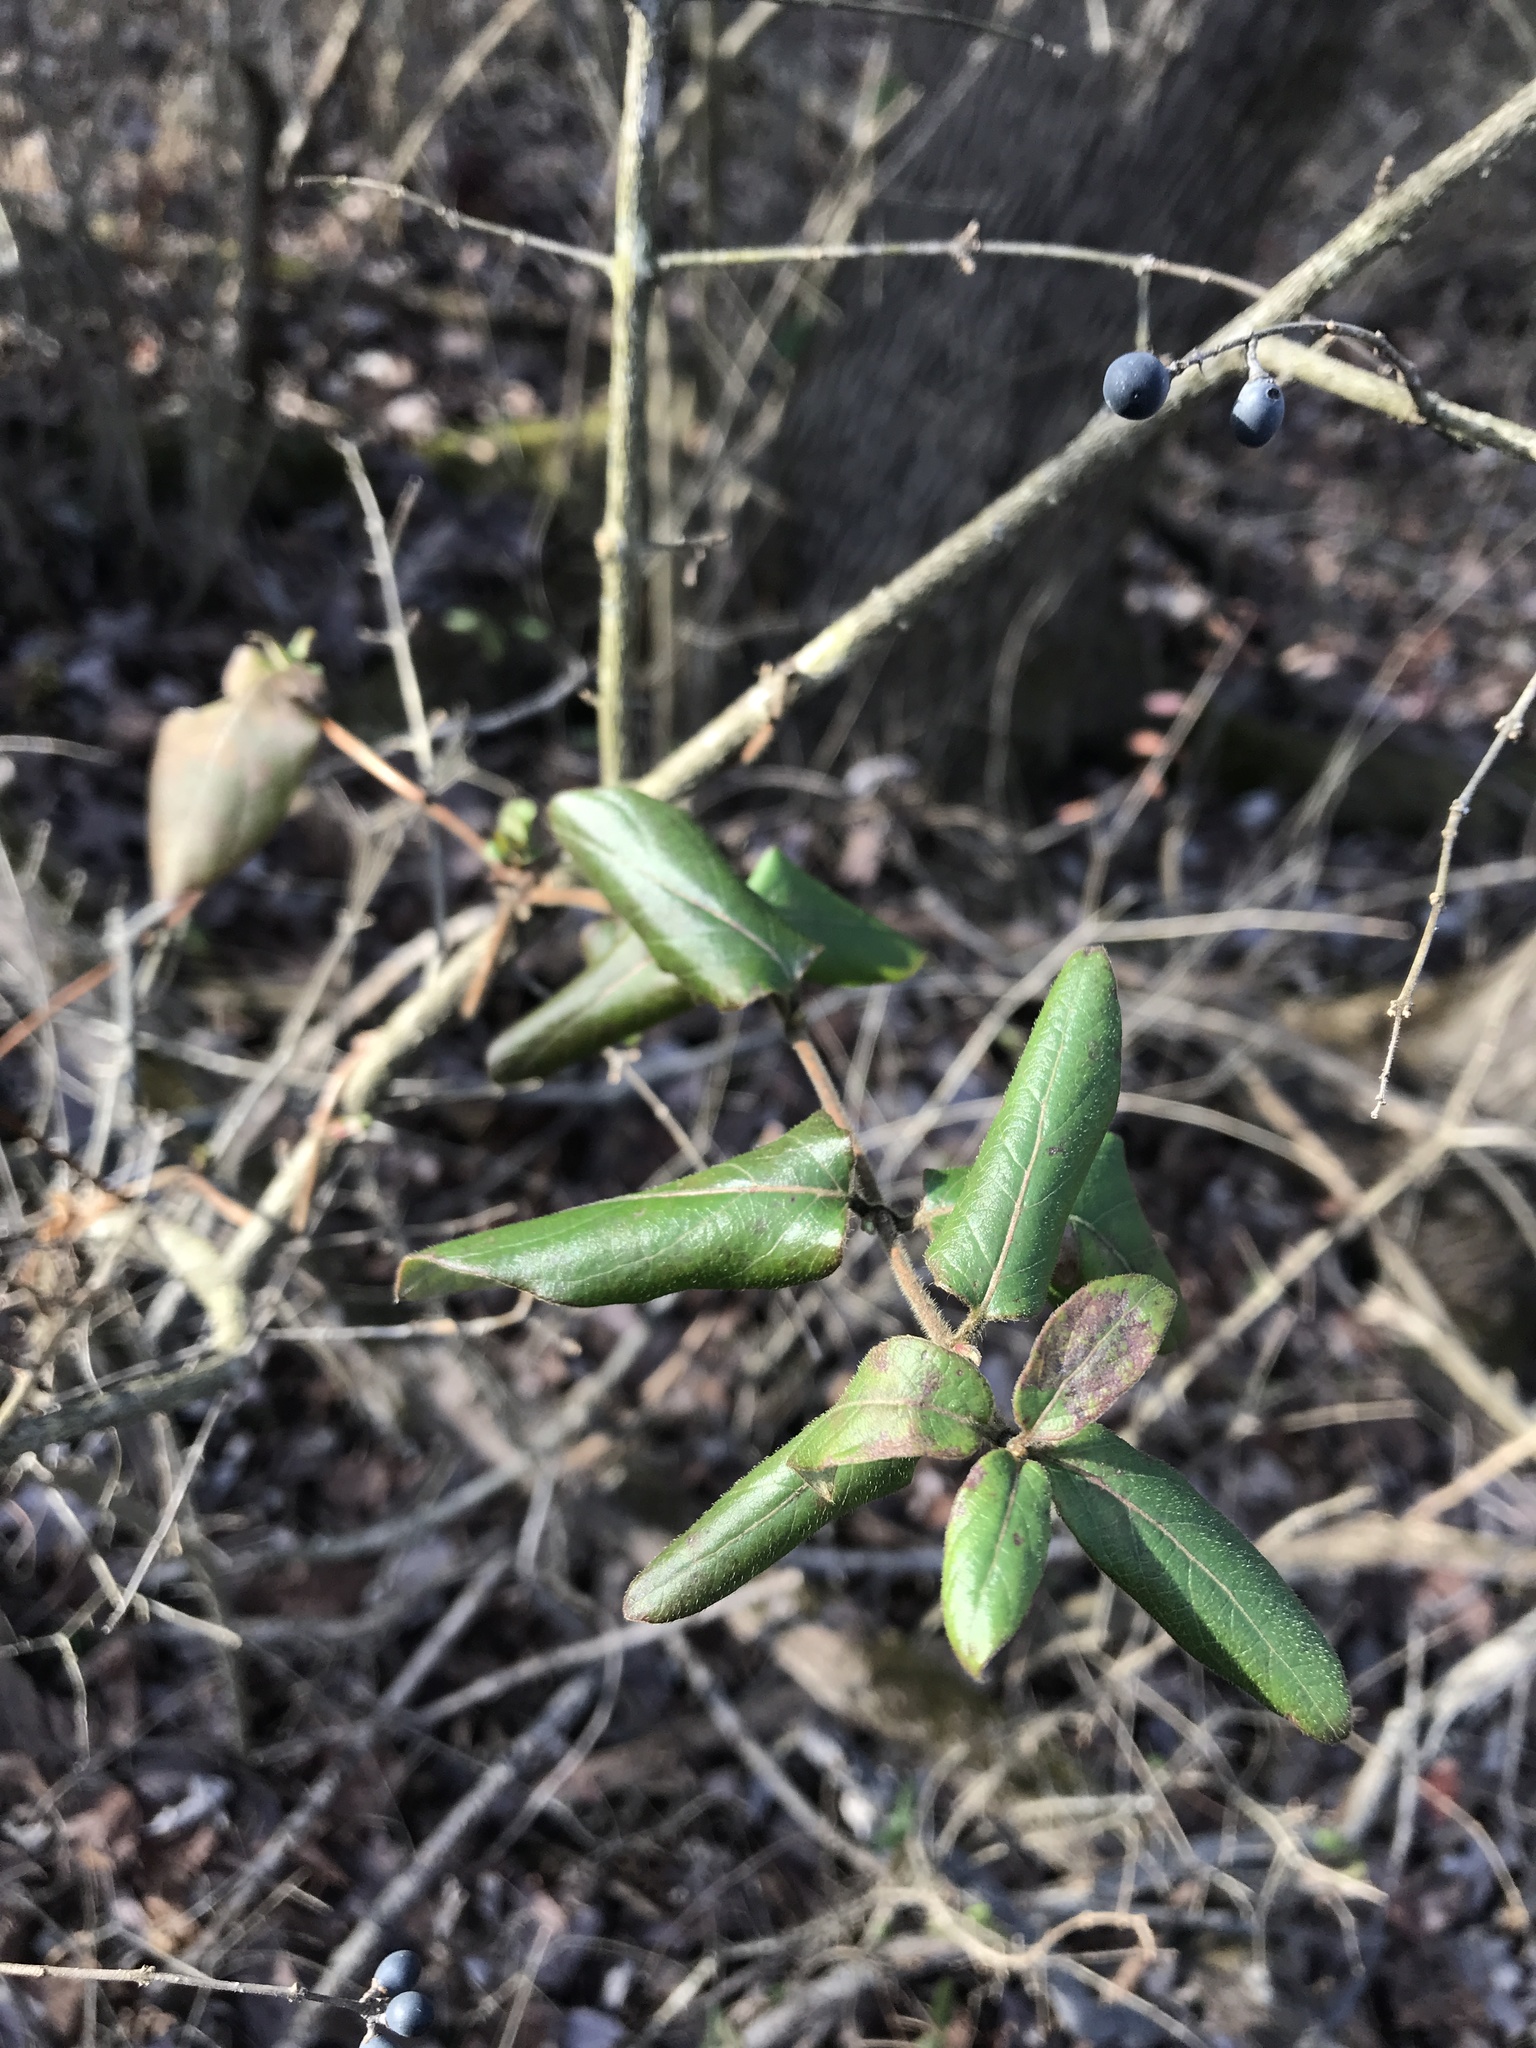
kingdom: Plantae
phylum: Tracheophyta
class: Magnoliopsida
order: Dipsacales
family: Caprifoliaceae
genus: Lonicera
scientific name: Lonicera japonica
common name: Japanese honeysuckle
